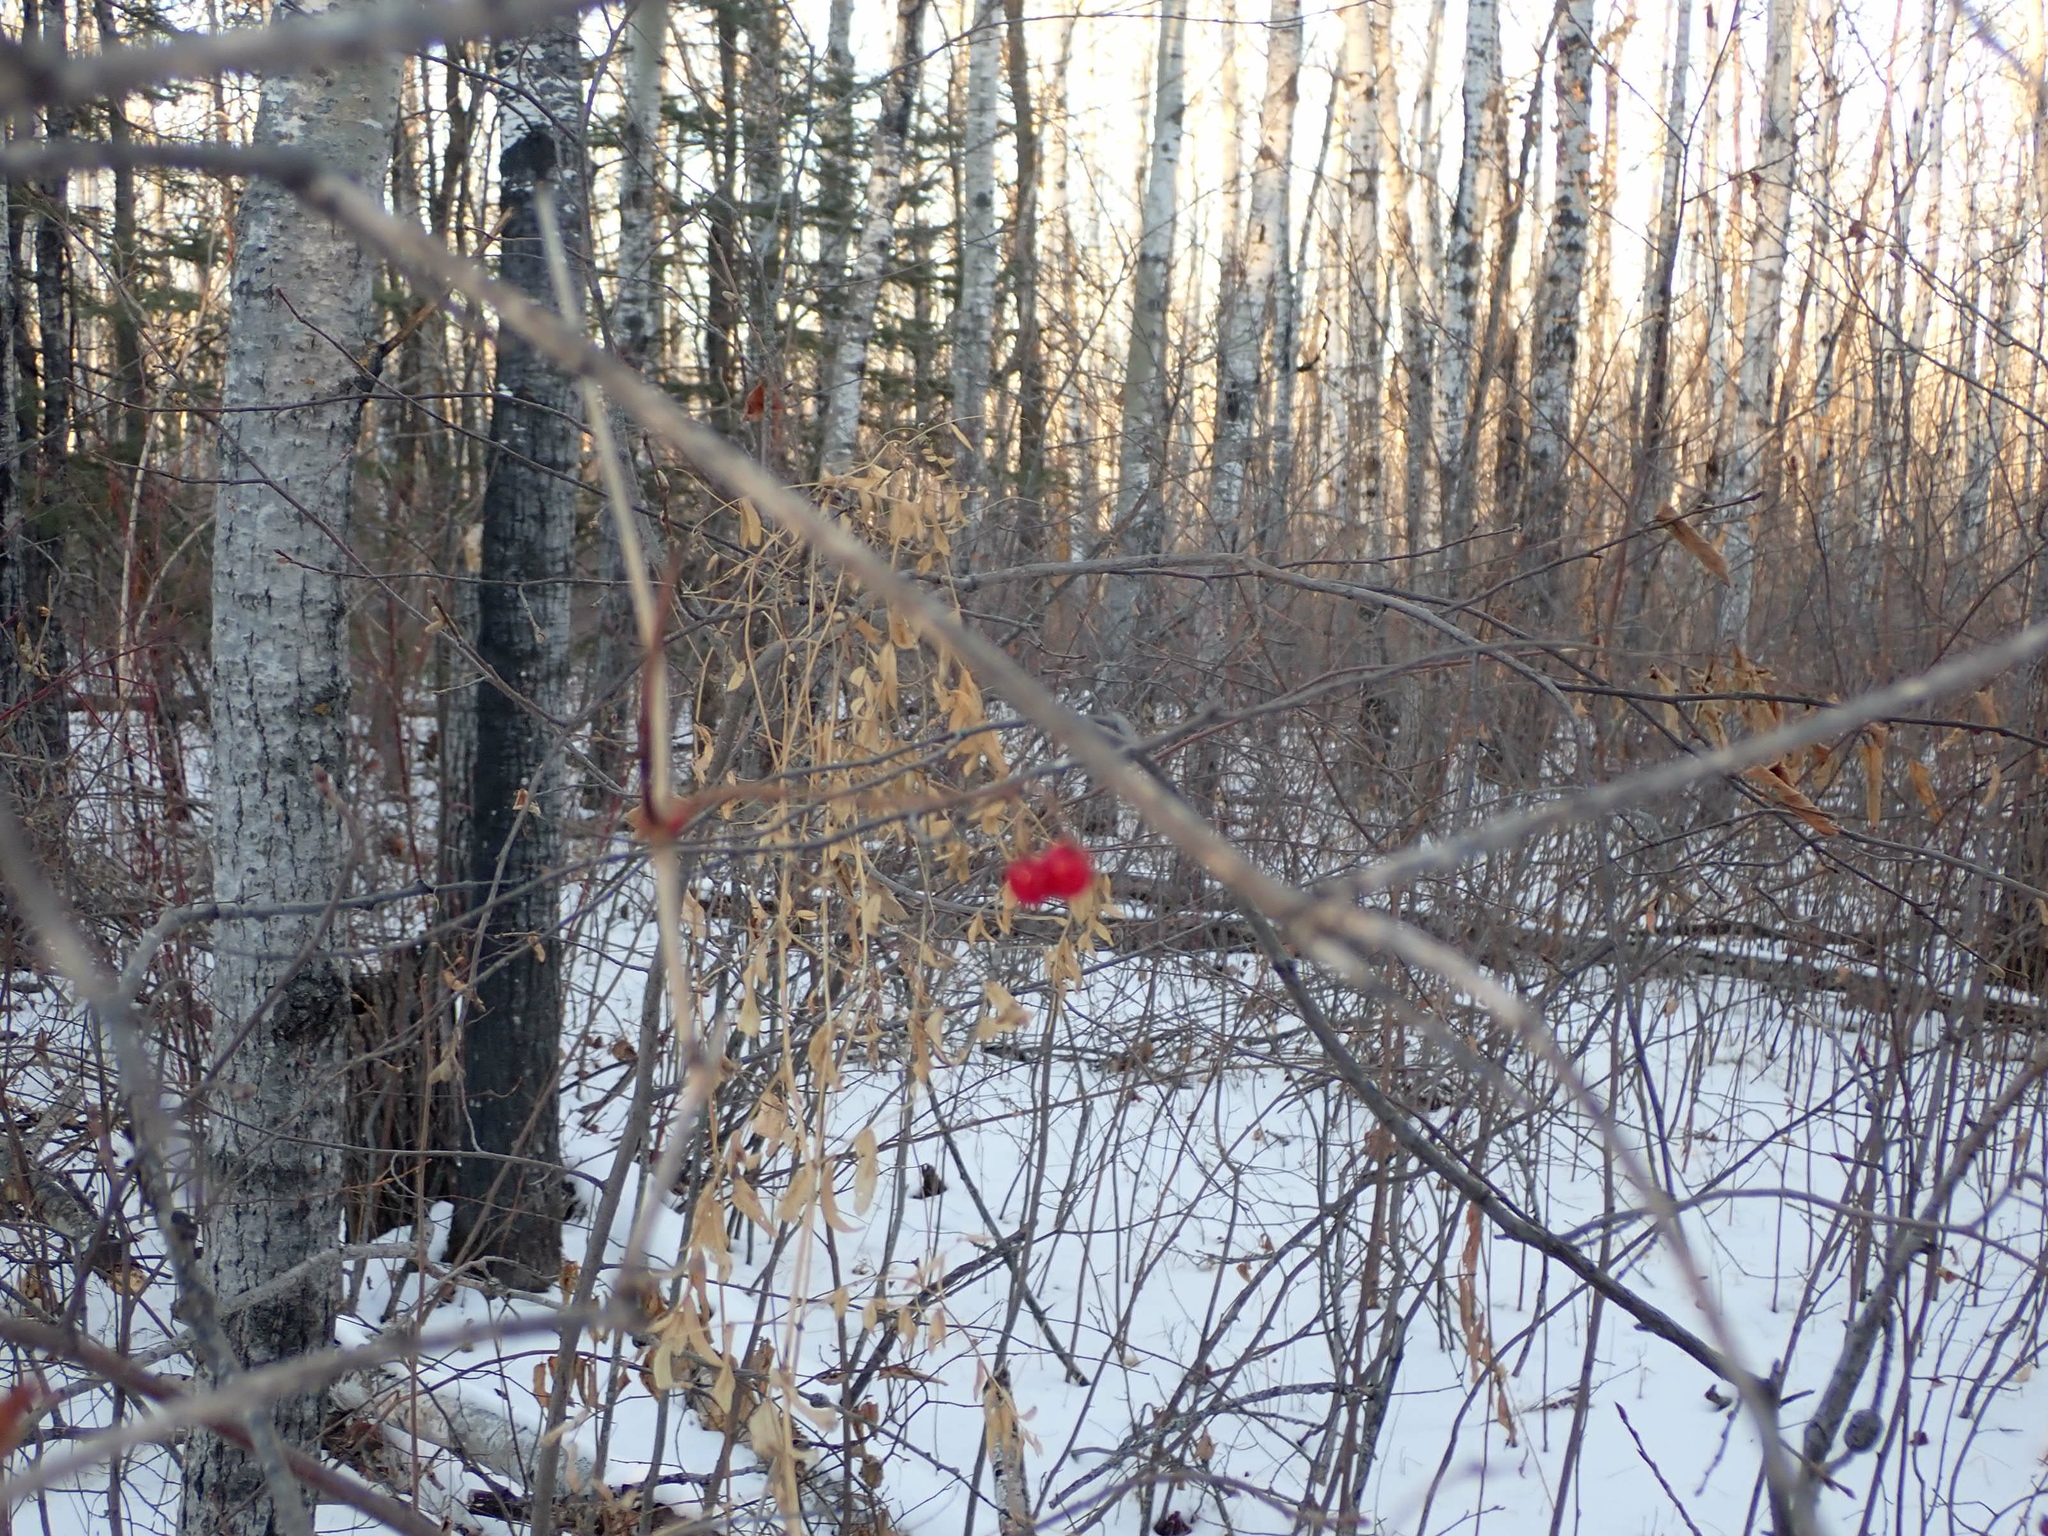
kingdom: Plantae
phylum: Tracheophyta
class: Magnoliopsida
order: Dipsacales
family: Viburnaceae
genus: Viburnum
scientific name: Viburnum opulus
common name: Guelder-rose
